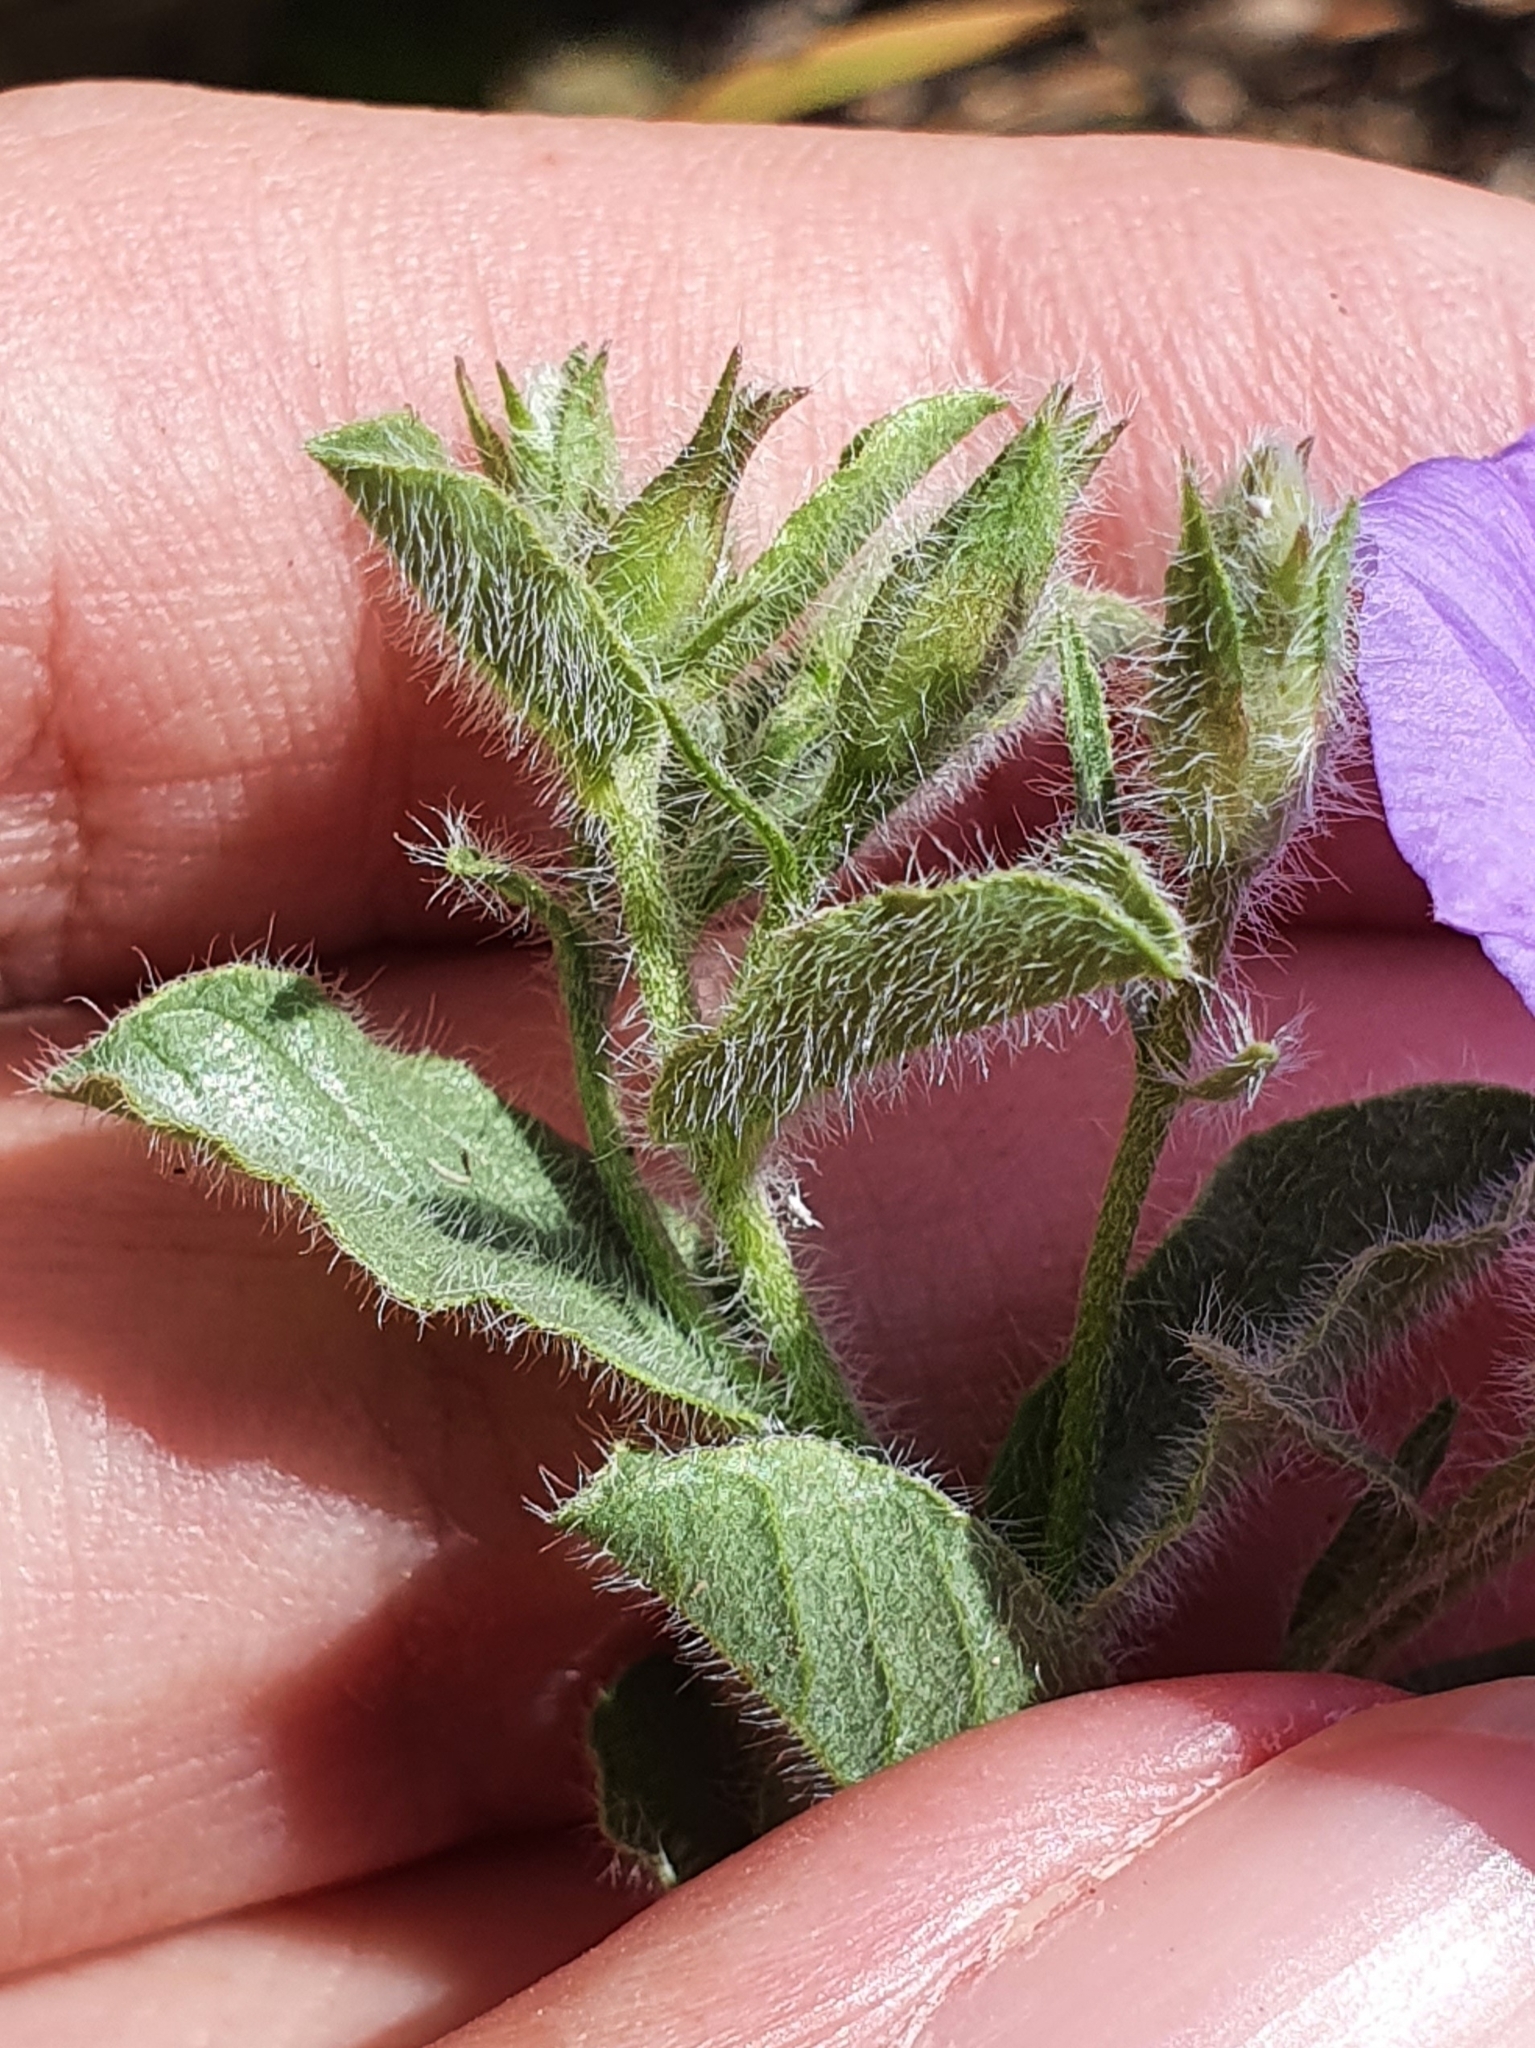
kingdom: Plantae
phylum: Tracheophyta
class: Magnoliopsida
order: Solanales
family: Convolvulaceae
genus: Convolvulus
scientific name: Convolvulus sabatius
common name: Ground blue-convolvulus
